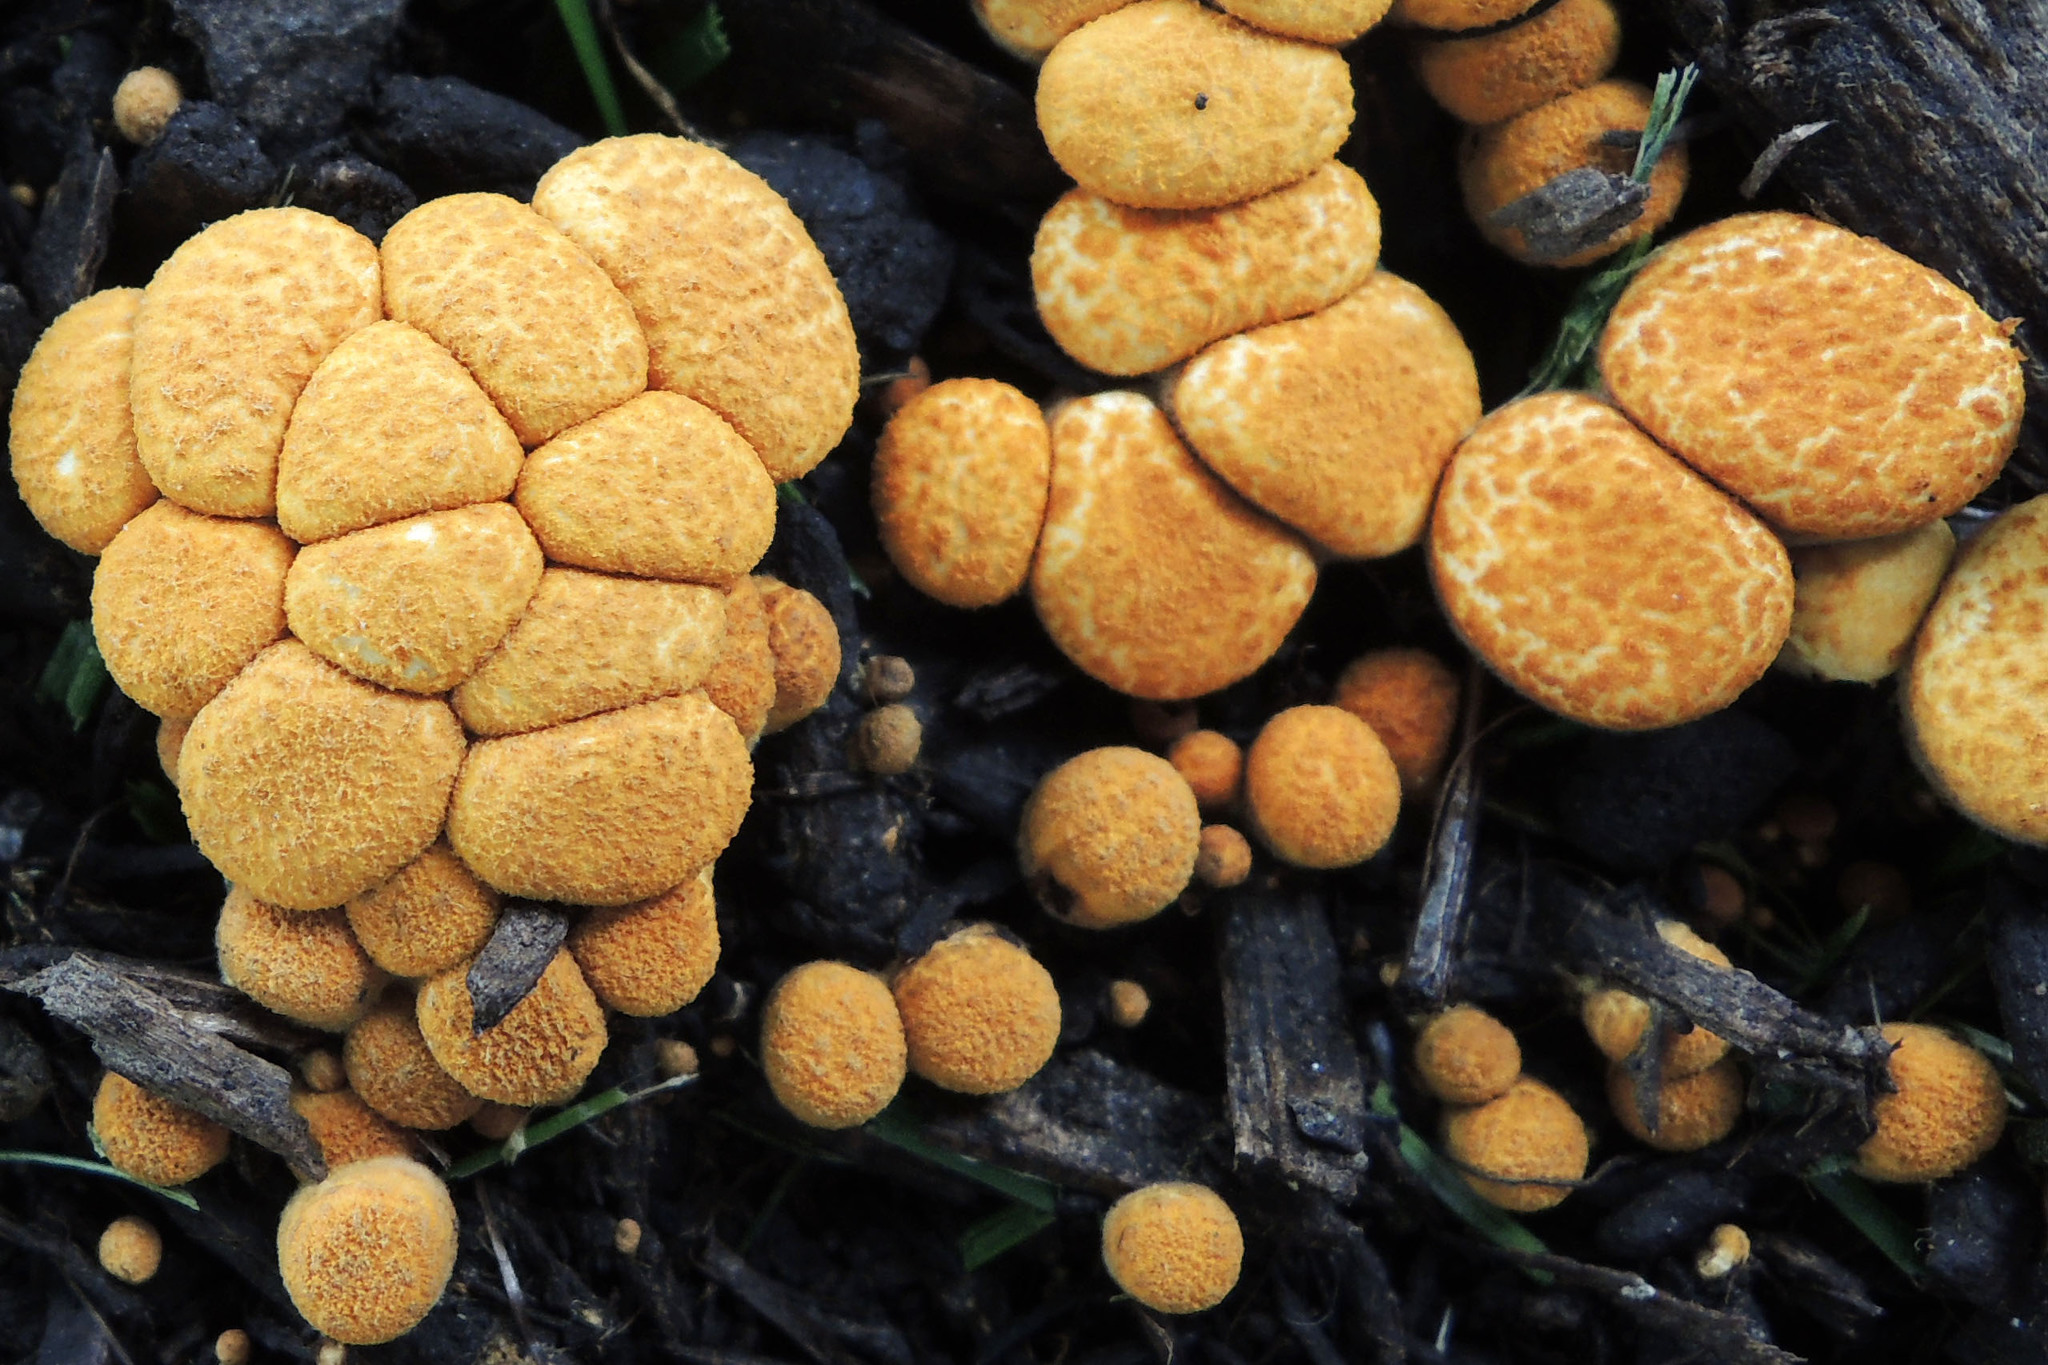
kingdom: Fungi
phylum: Basidiomycota
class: Agaricomycetes
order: Agaricales
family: Nidulariaceae
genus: Crucibulum
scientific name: Crucibulum laeve
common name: Common bird's nest
